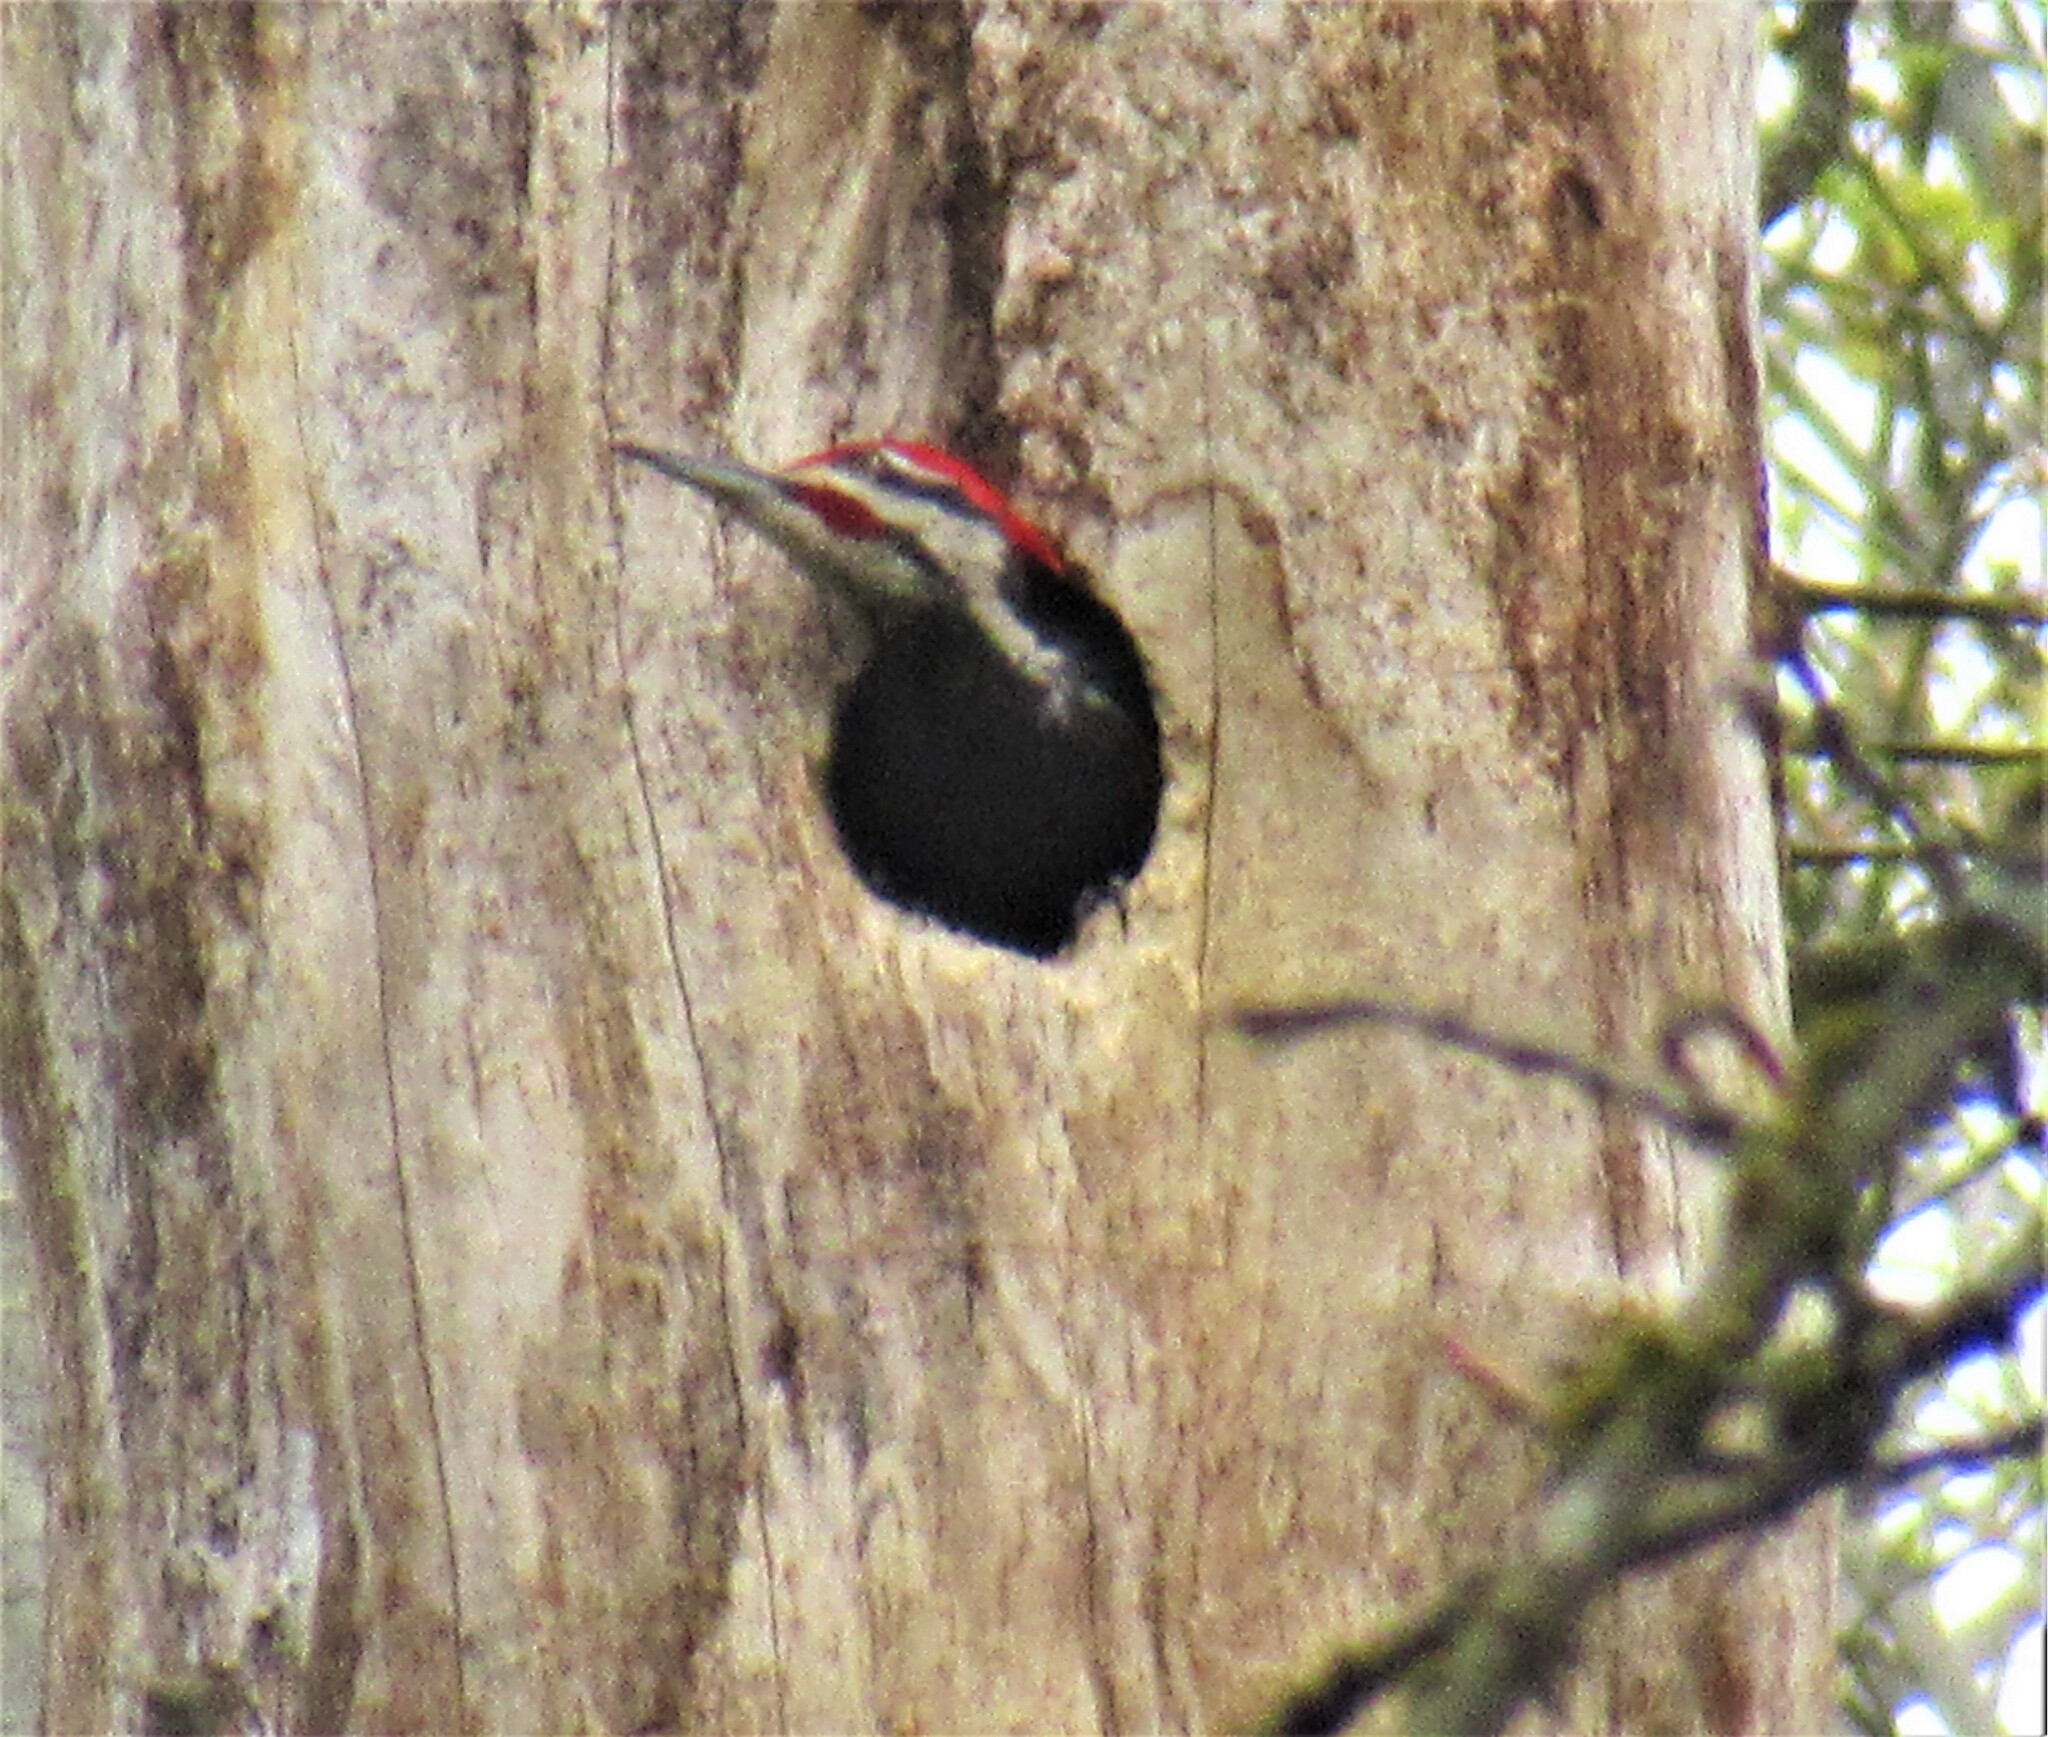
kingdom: Animalia
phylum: Chordata
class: Aves
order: Piciformes
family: Picidae
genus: Dryocopus
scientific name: Dryocopus pileatus
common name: Pileated woodpecker
